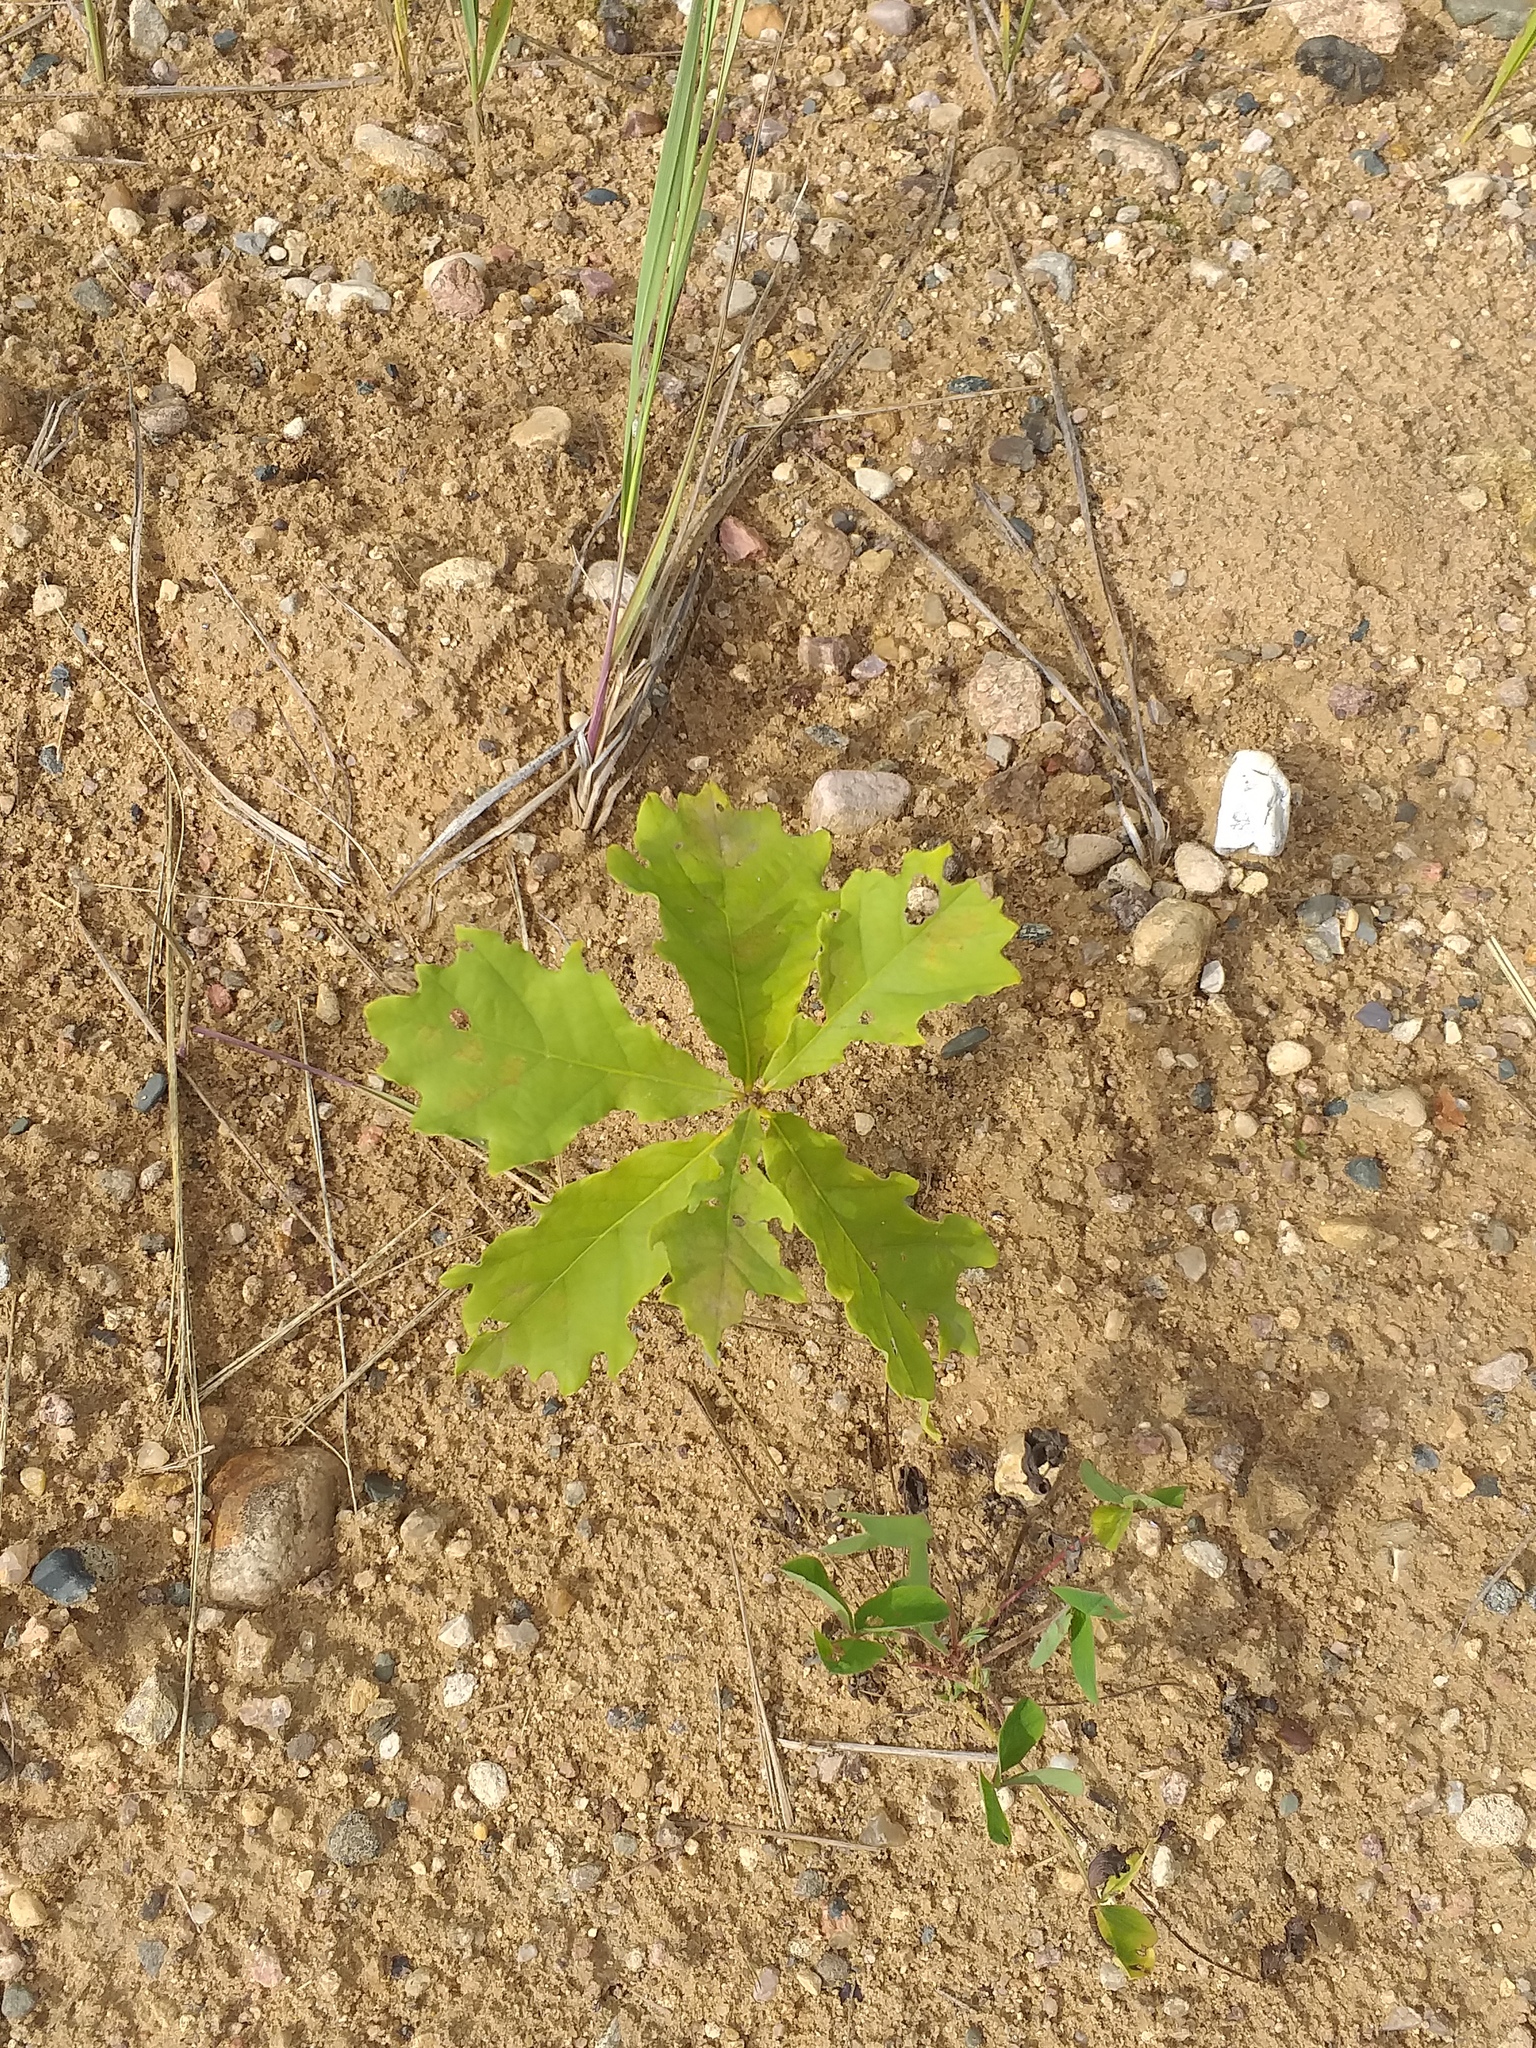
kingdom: Plantae
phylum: Tracheophyta
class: Magnoliopsida
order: Fagales
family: Fagaceae
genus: Quercus
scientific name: Quercus robur
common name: Pedunculate oak
